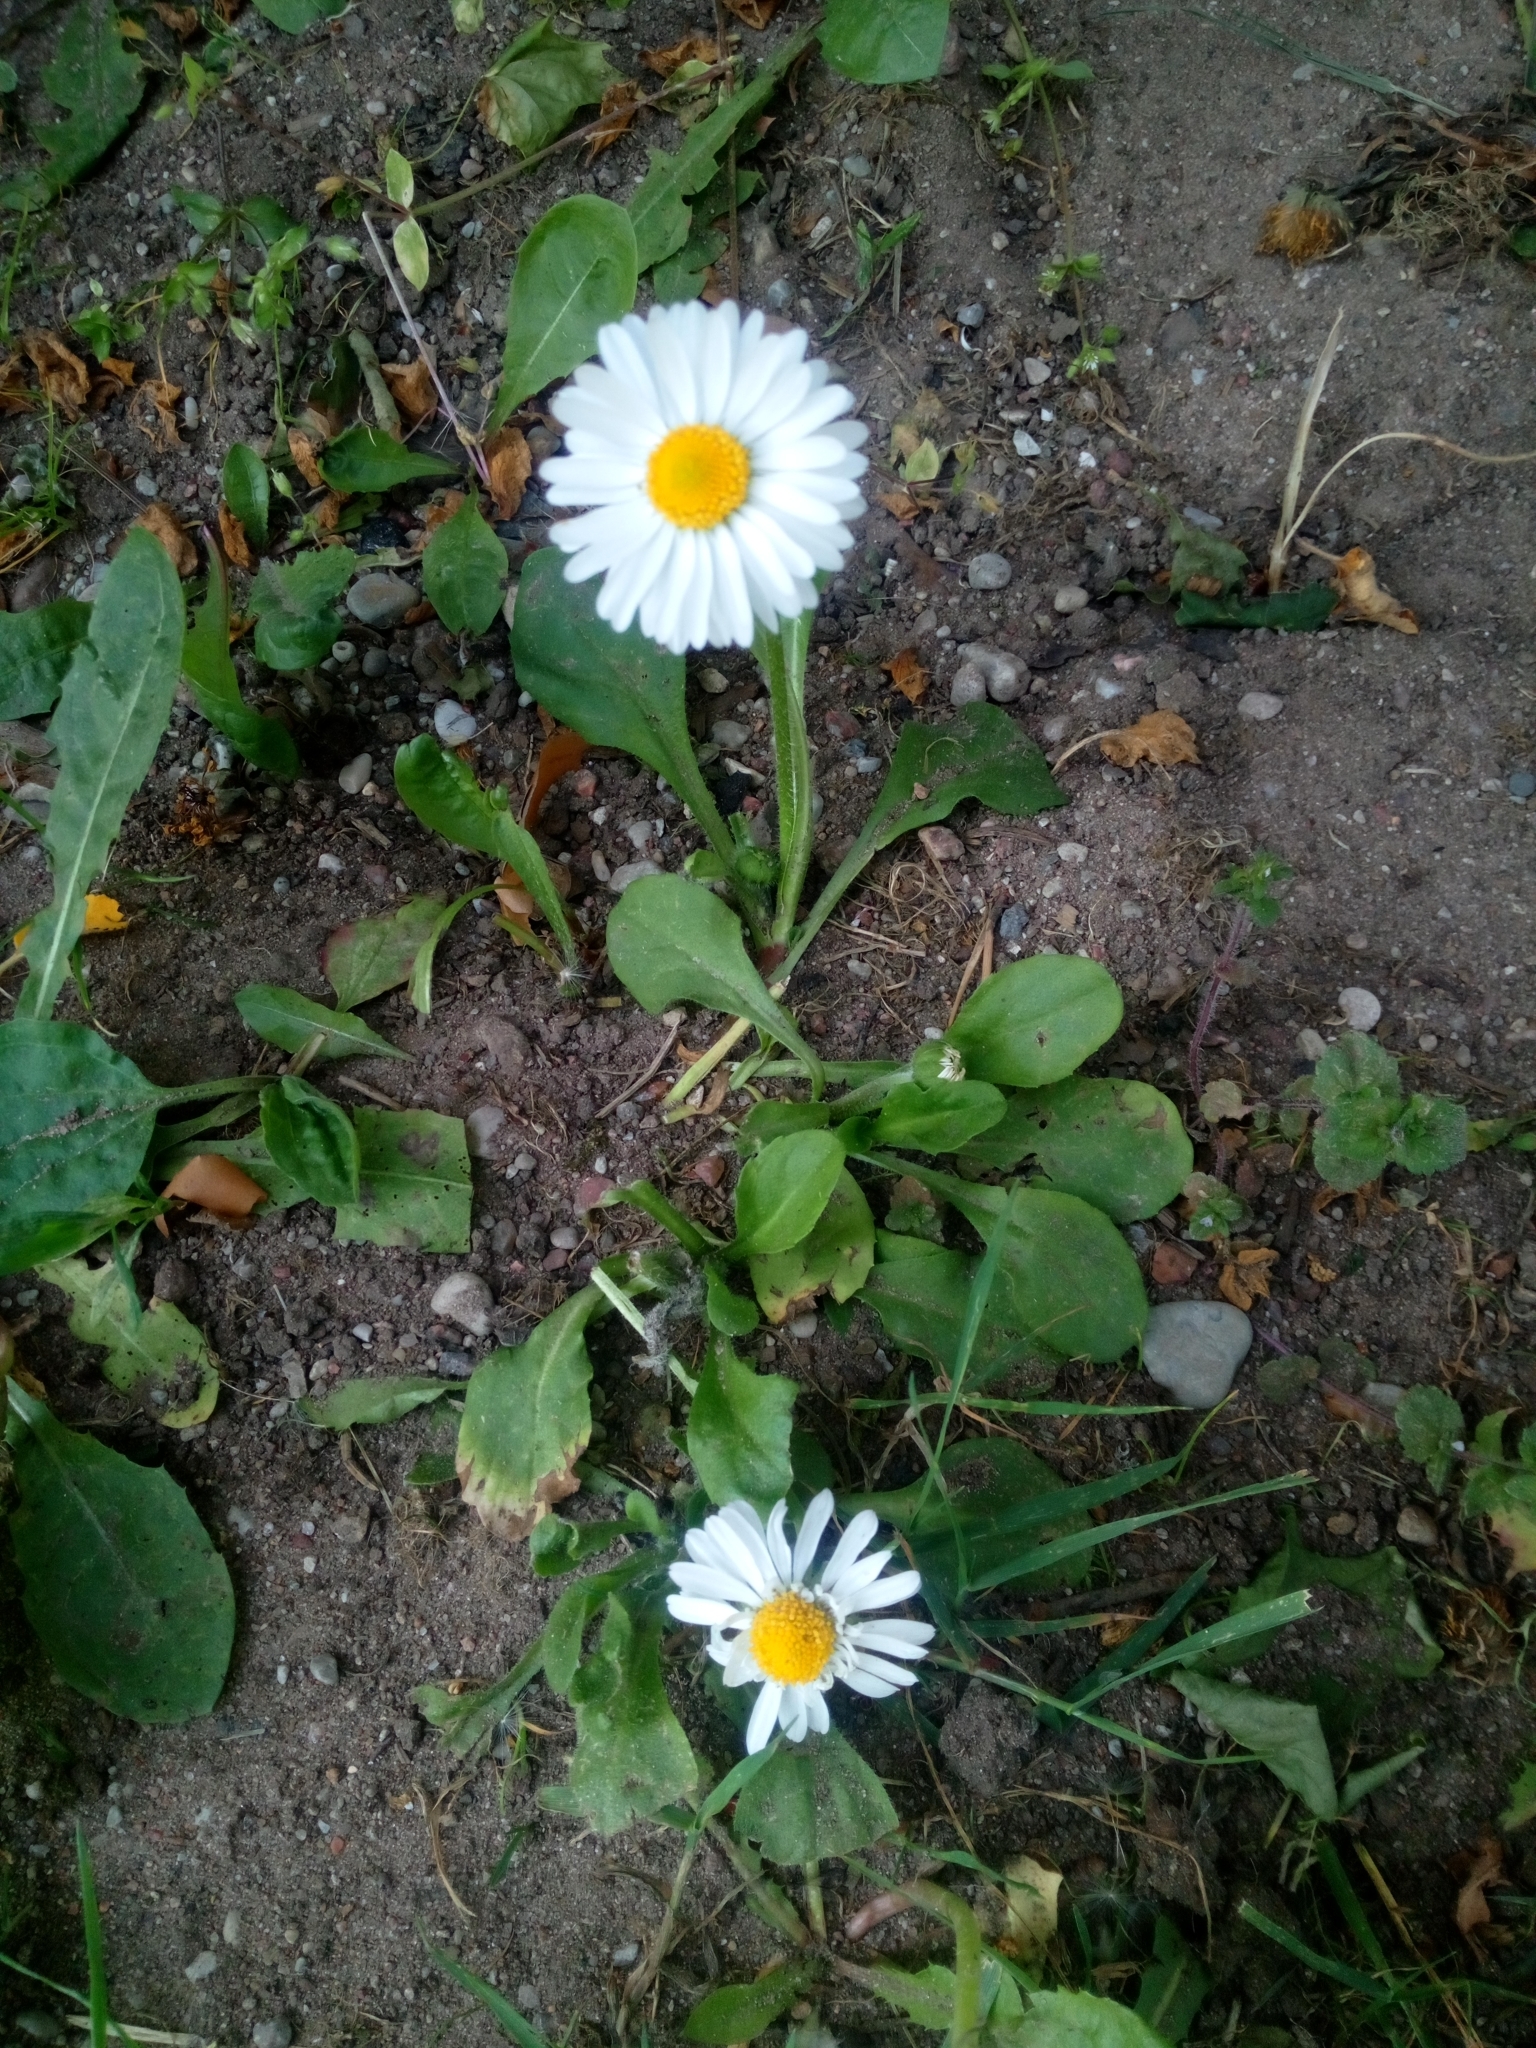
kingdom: Plantae
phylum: Tracheophyta
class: Magnoliopsida
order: Asterales
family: Asteraceae
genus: Bellis
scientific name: Bellis perennis
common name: Lawndaisy
